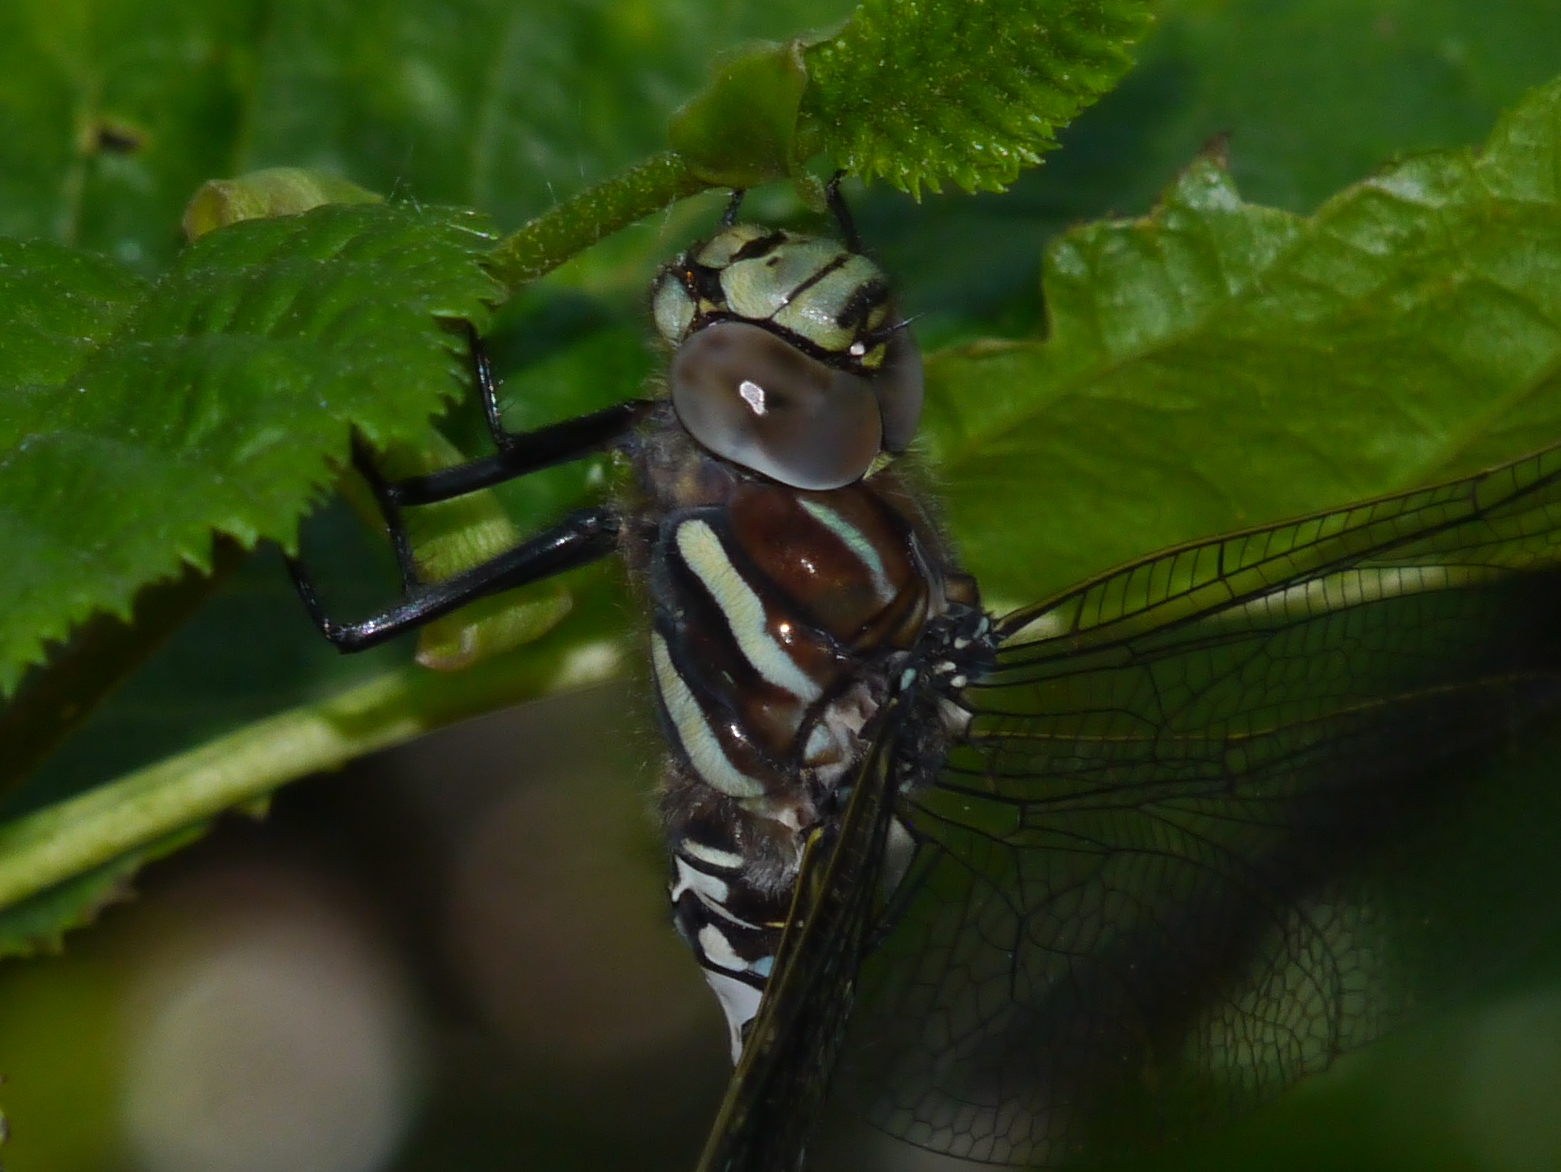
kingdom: Animalia
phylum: Arthropoda
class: Insecta
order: Odonata
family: Aeshnidae
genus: Aeshna
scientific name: Aeshna juncea
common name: Moorland hawker
